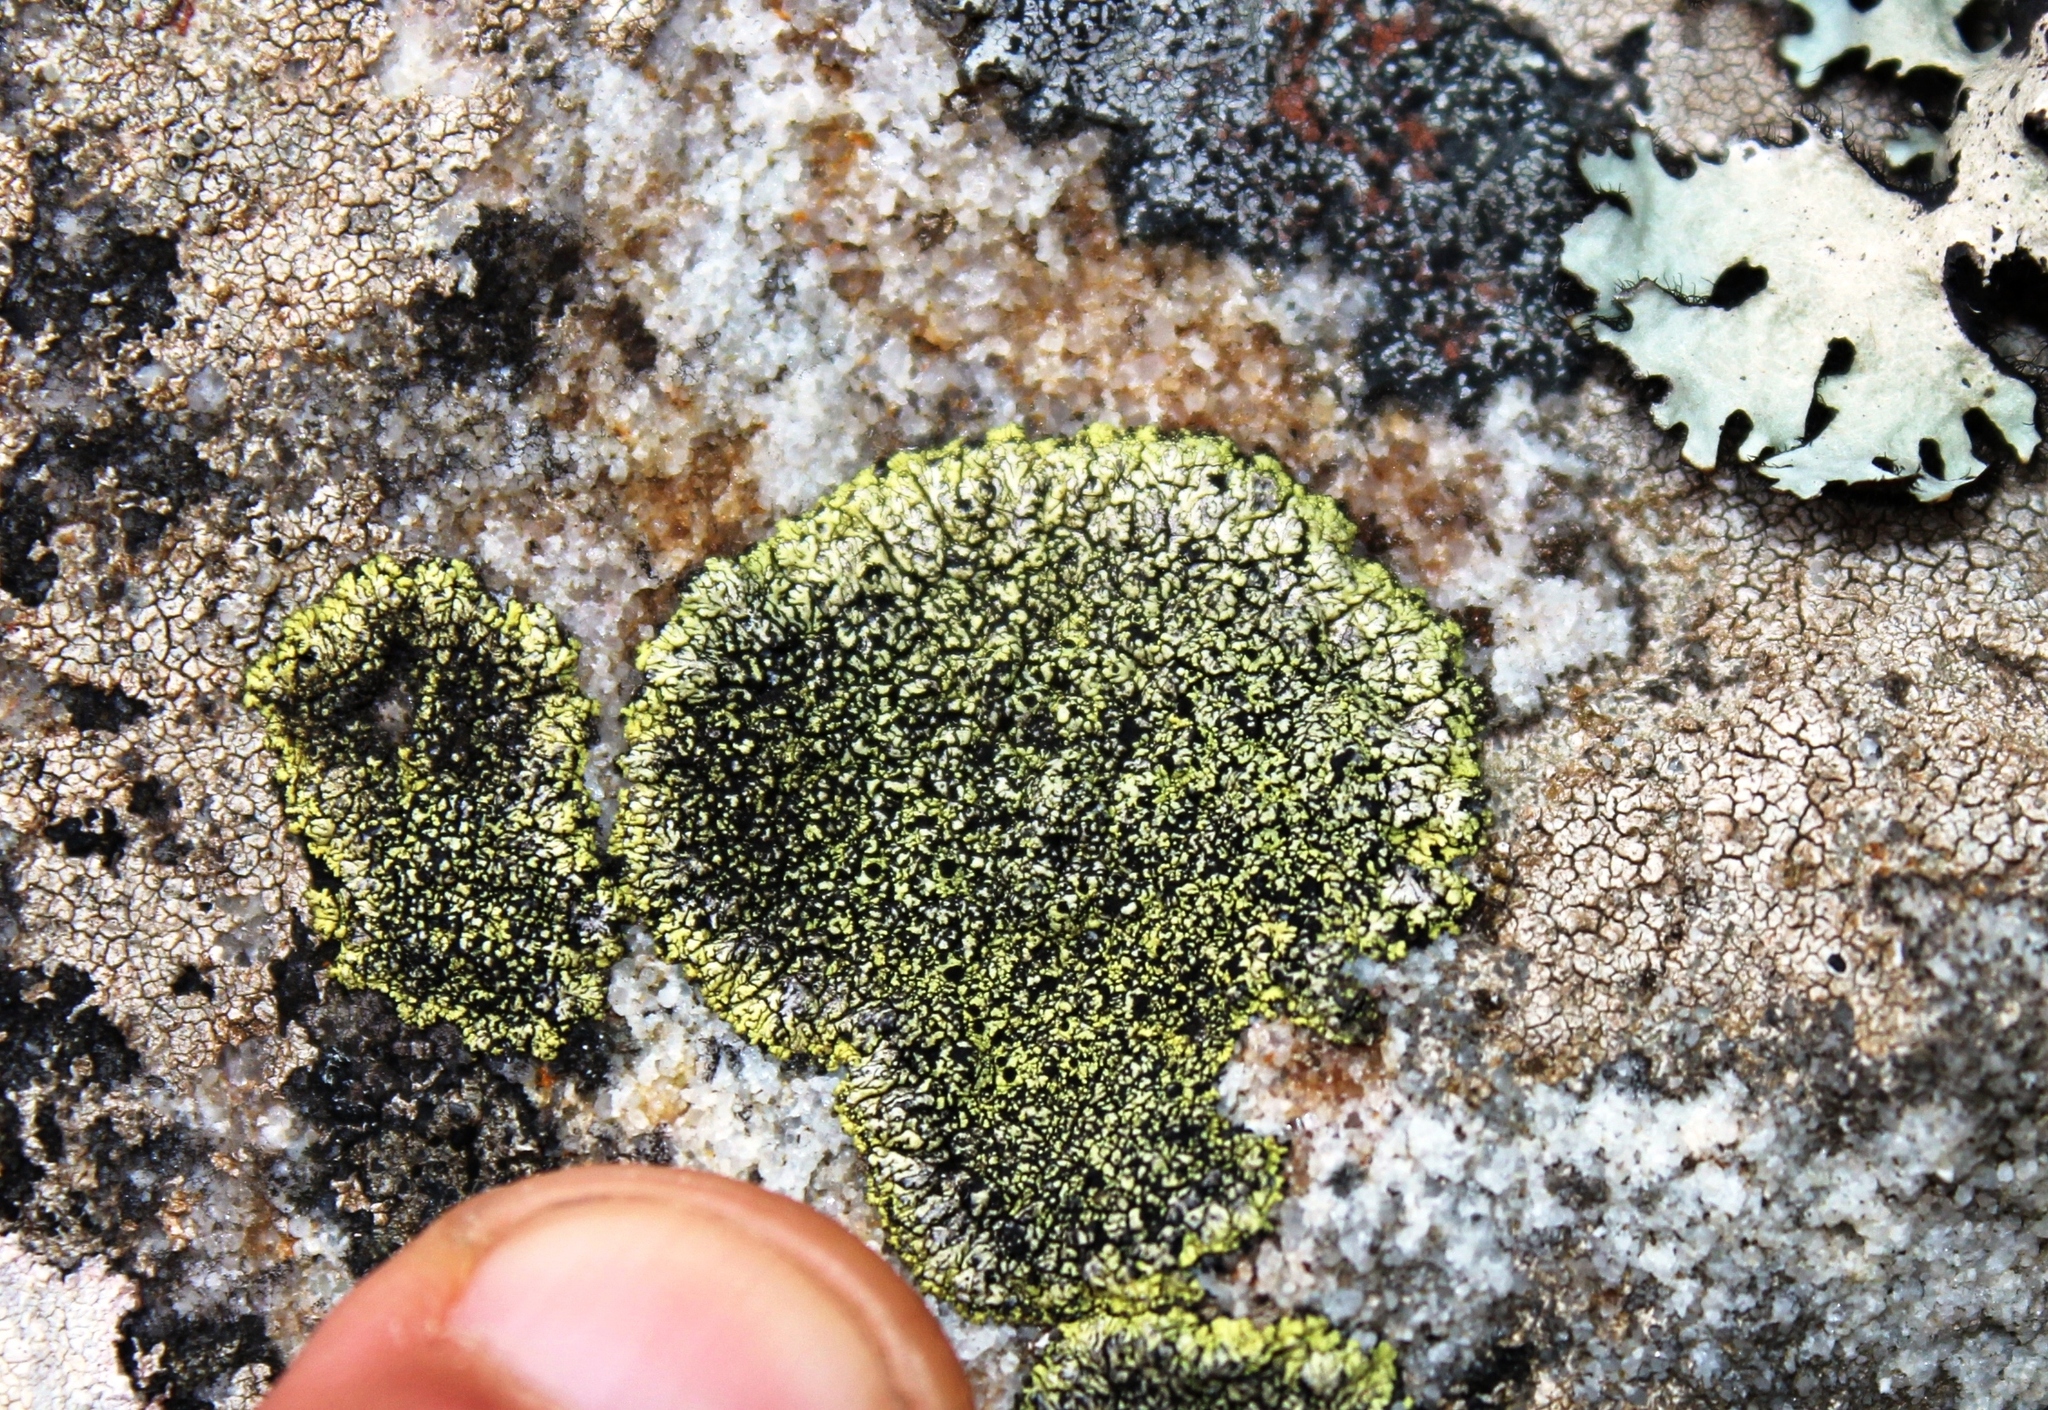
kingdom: Fungi
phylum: Ascomycota
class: Lecanoromycetes
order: Caliciales
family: Caliciaceae
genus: Diploicia
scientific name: Diploicia africana
